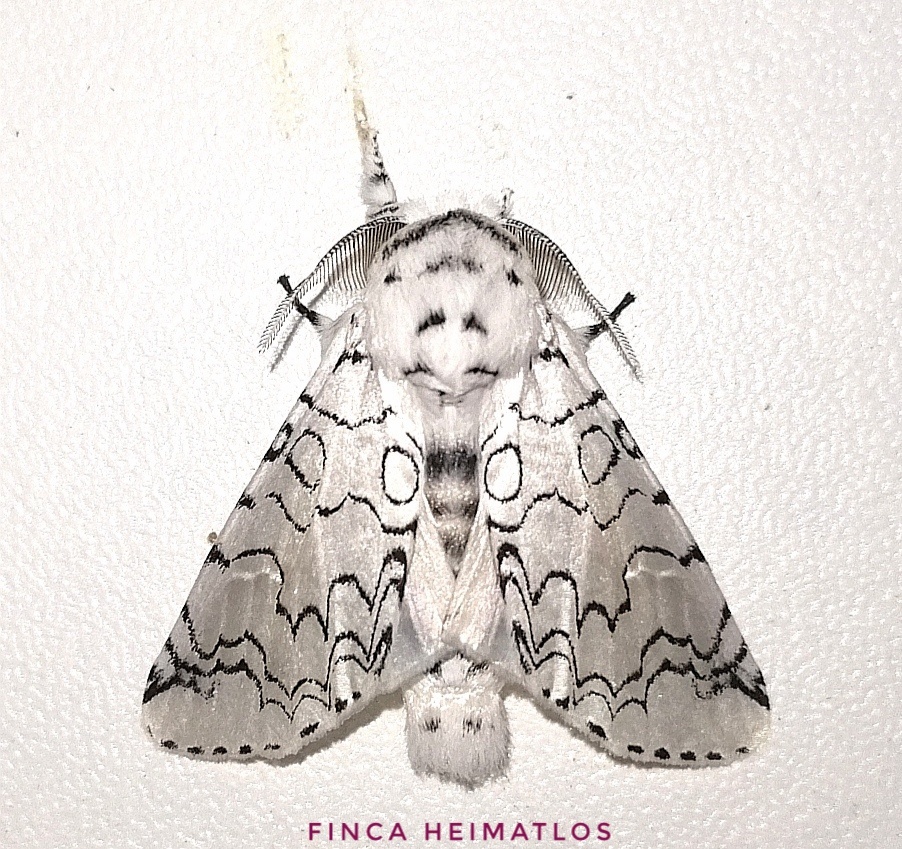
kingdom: Animalia
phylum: Arthropoda
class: Insecta
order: Lepidoptera
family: Notodontidae
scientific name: Notodontidae
